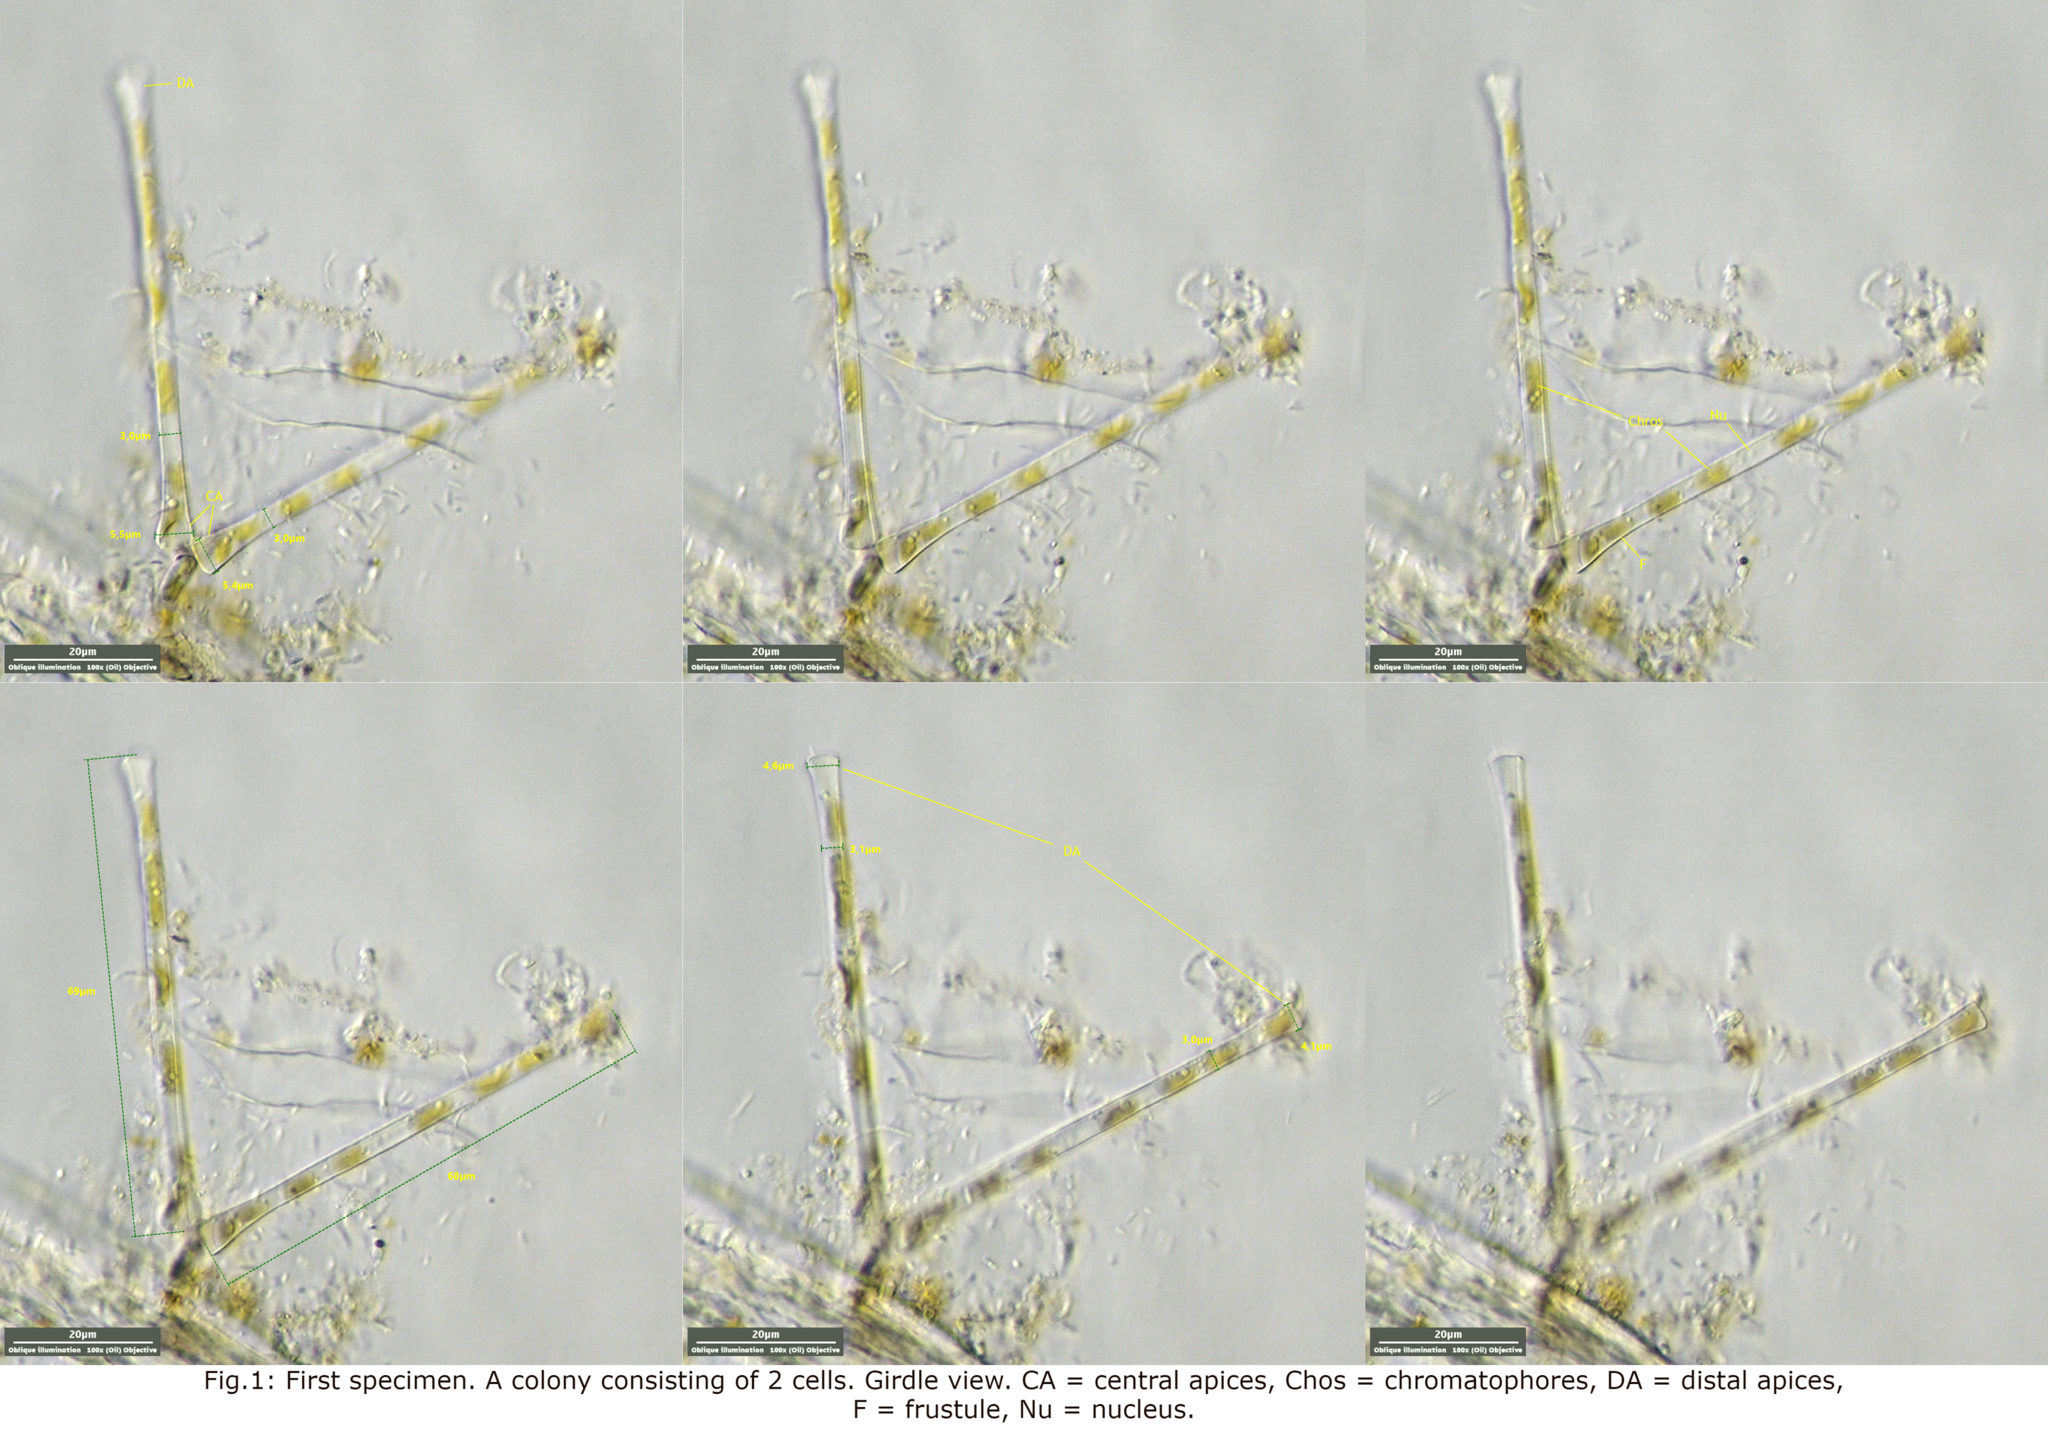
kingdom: Chromista
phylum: Ochrophyta
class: Bacillariophyceae
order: Fragilariales
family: Fragilariaceae
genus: Asterionella
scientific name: Asterionella formosa
